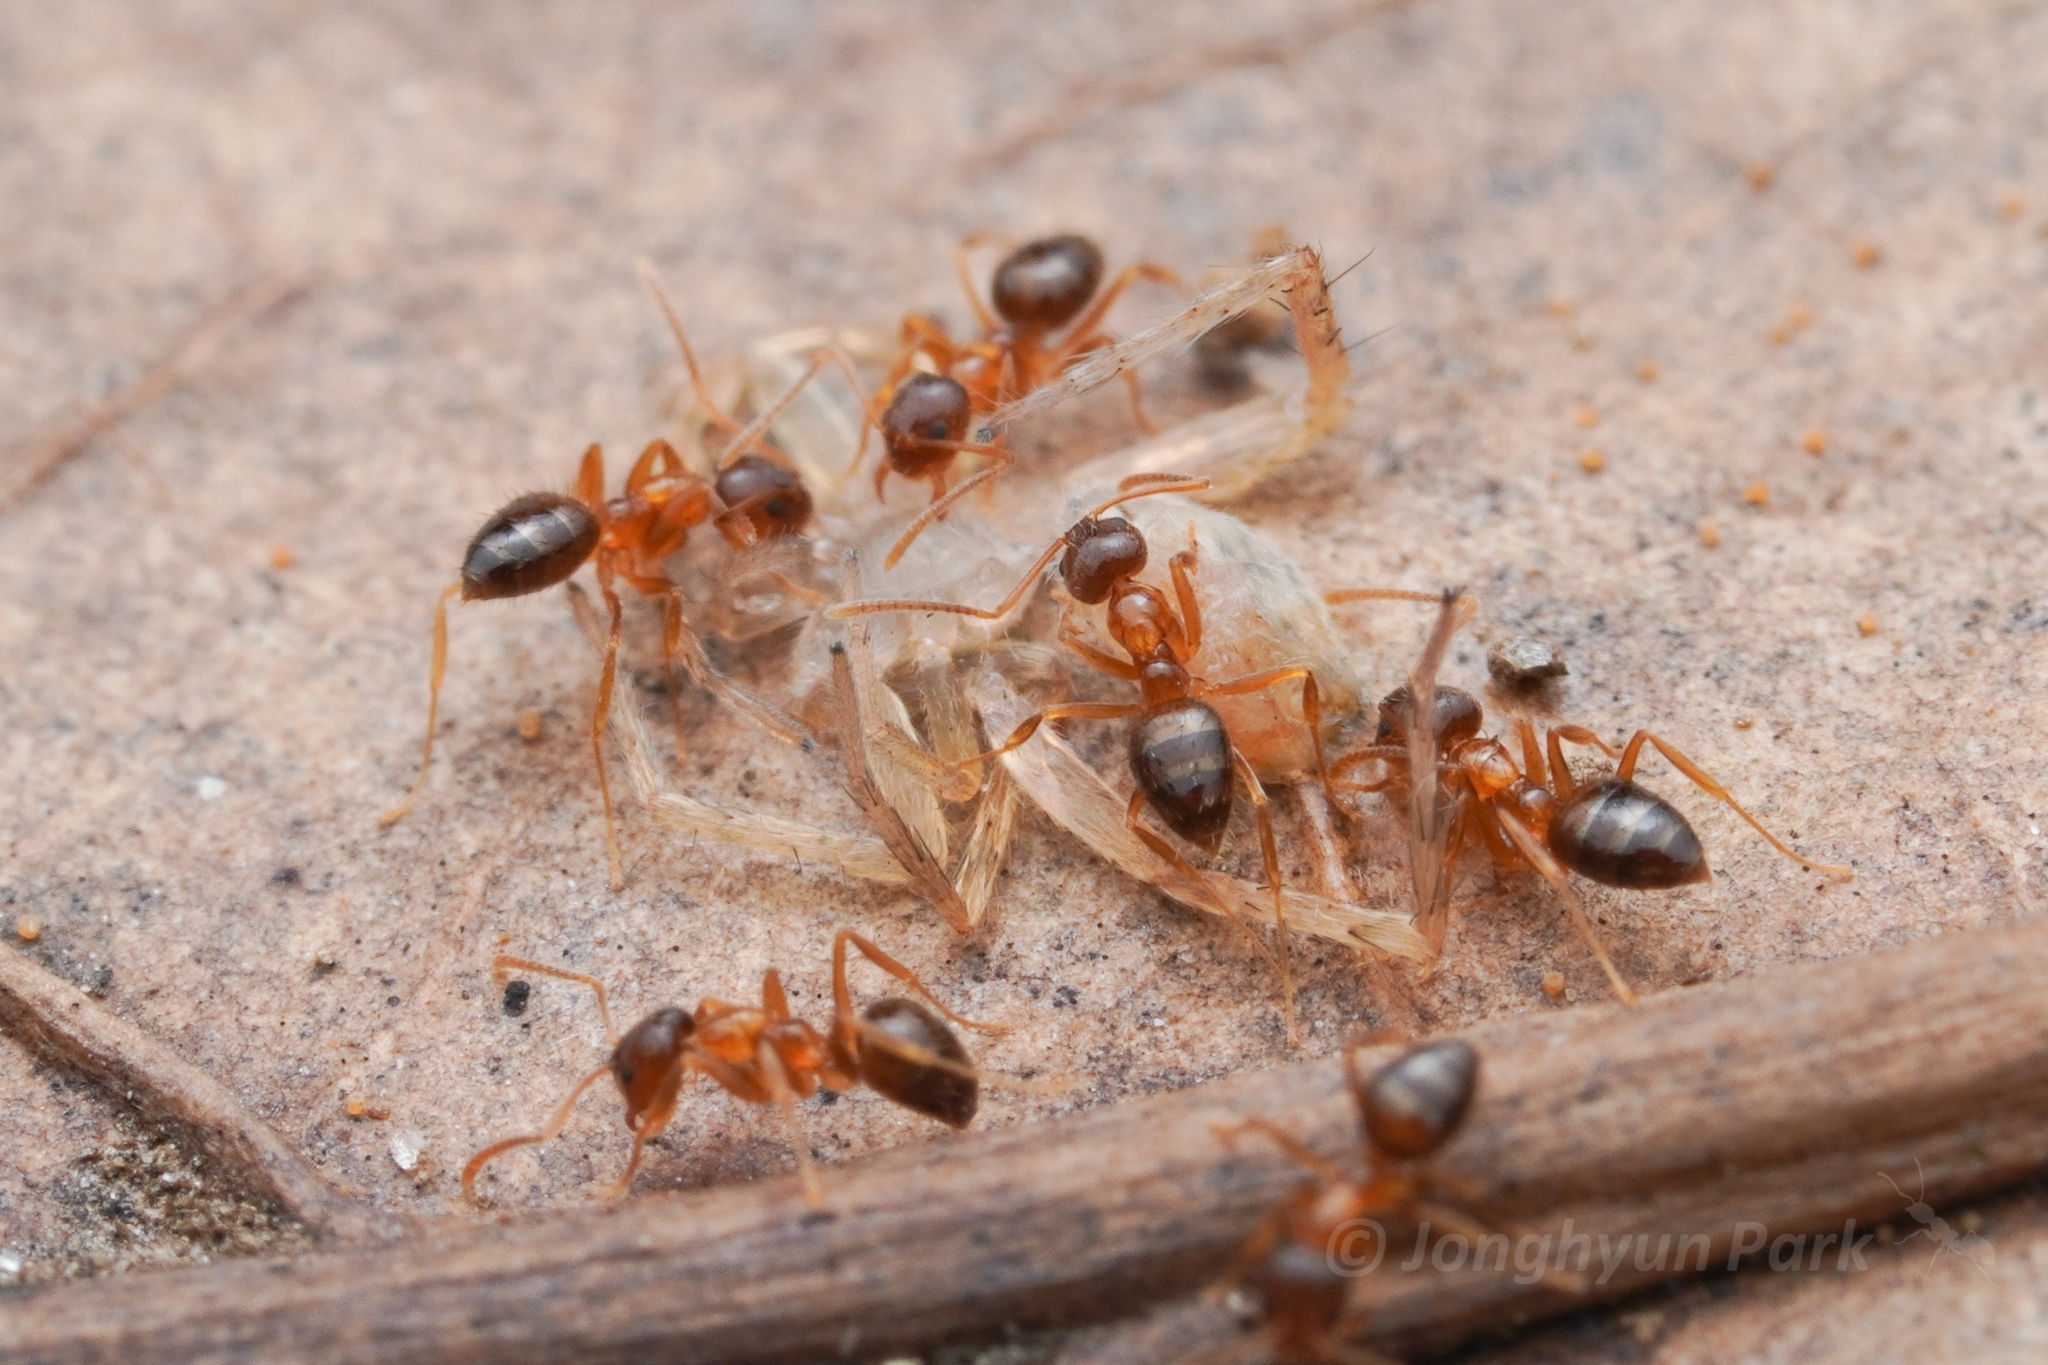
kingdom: Animalia
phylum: Arthropoda
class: Insecta
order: Hymenoptera
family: Formicidae
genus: Paratrechina
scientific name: Paratrechina flavipes
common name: Eastern asian formicine ant
